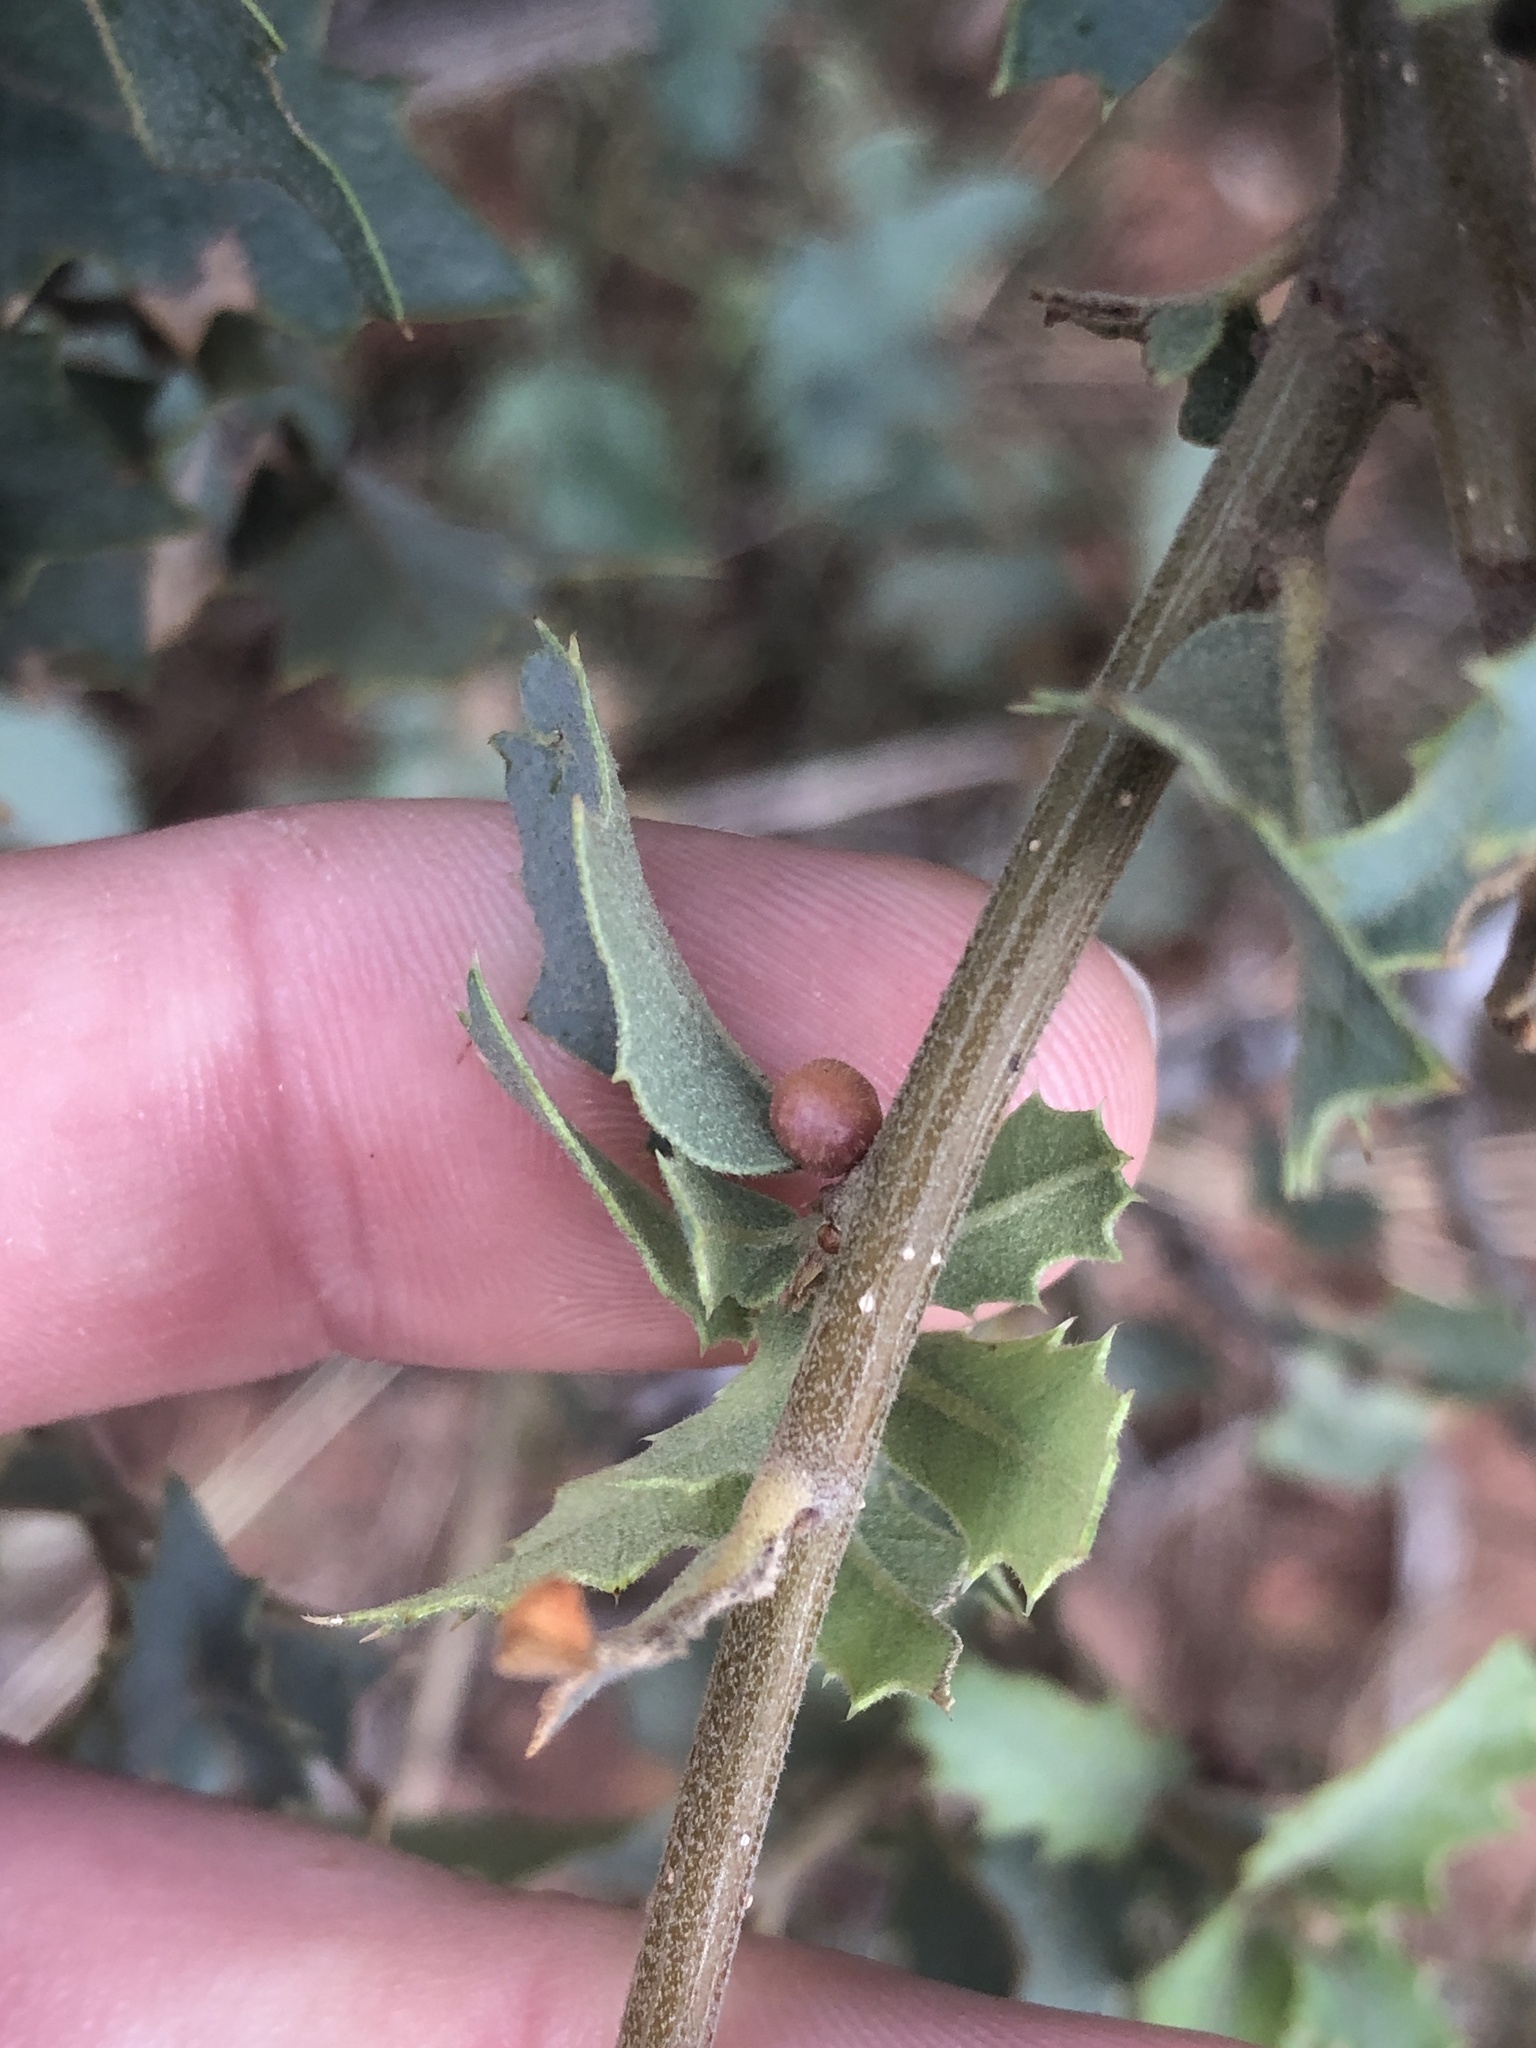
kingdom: Animalia
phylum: Arthropoda
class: Insecta
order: Hymenoptera
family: Cynipidae
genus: Trigonaspis
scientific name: Trigonaspis
